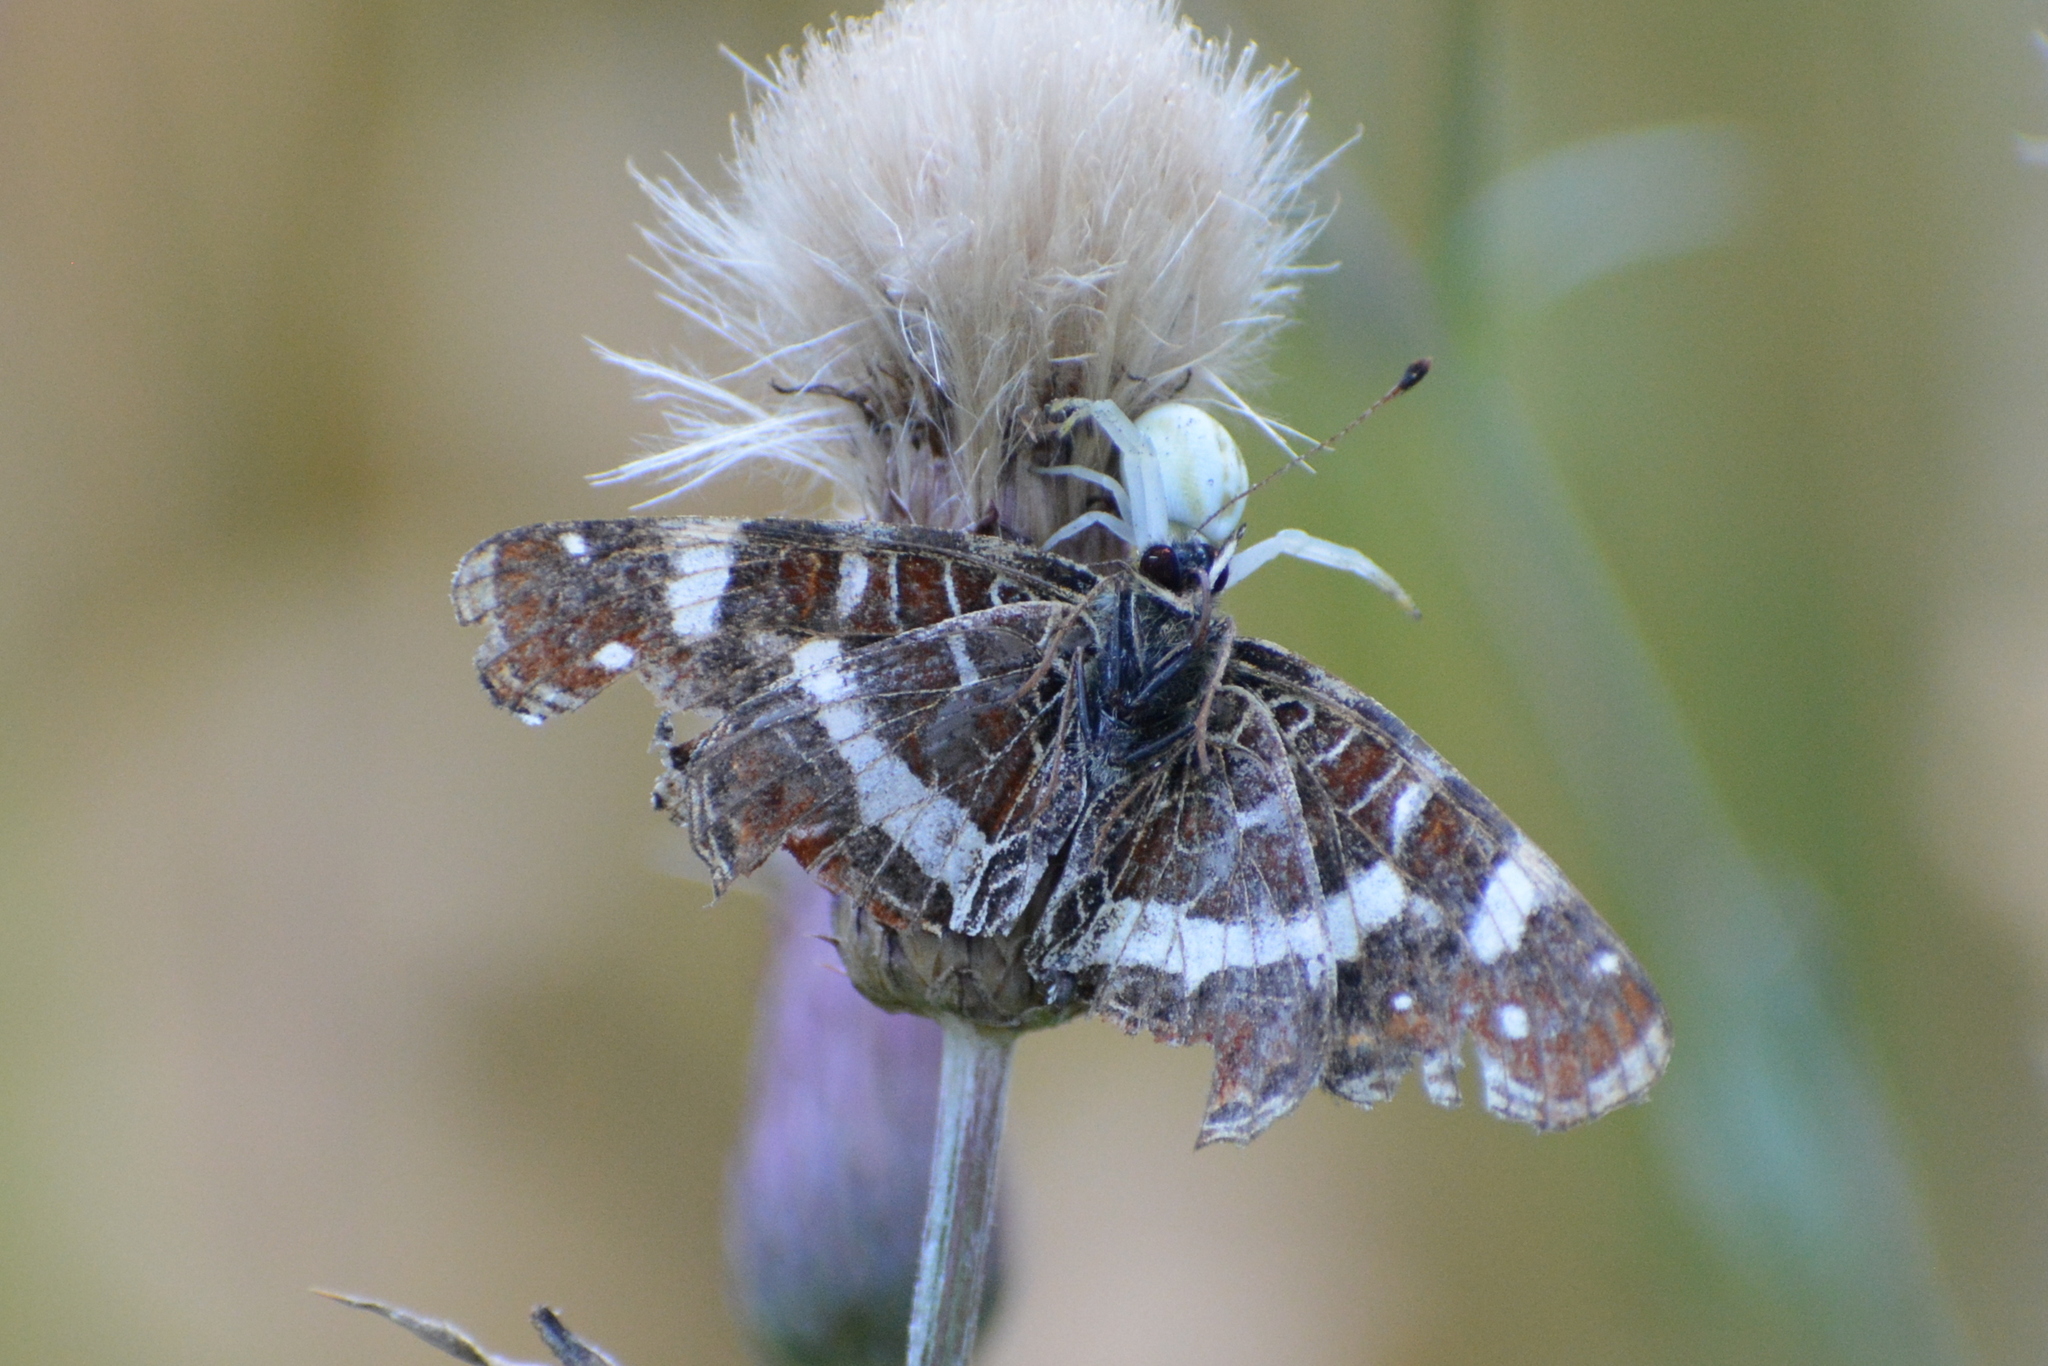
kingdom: Animalia
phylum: Arthropoda
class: Insecta
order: Lepidoptera
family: Nymphalidae
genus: Araschnia
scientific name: Araschnia levana
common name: Map butterfly
